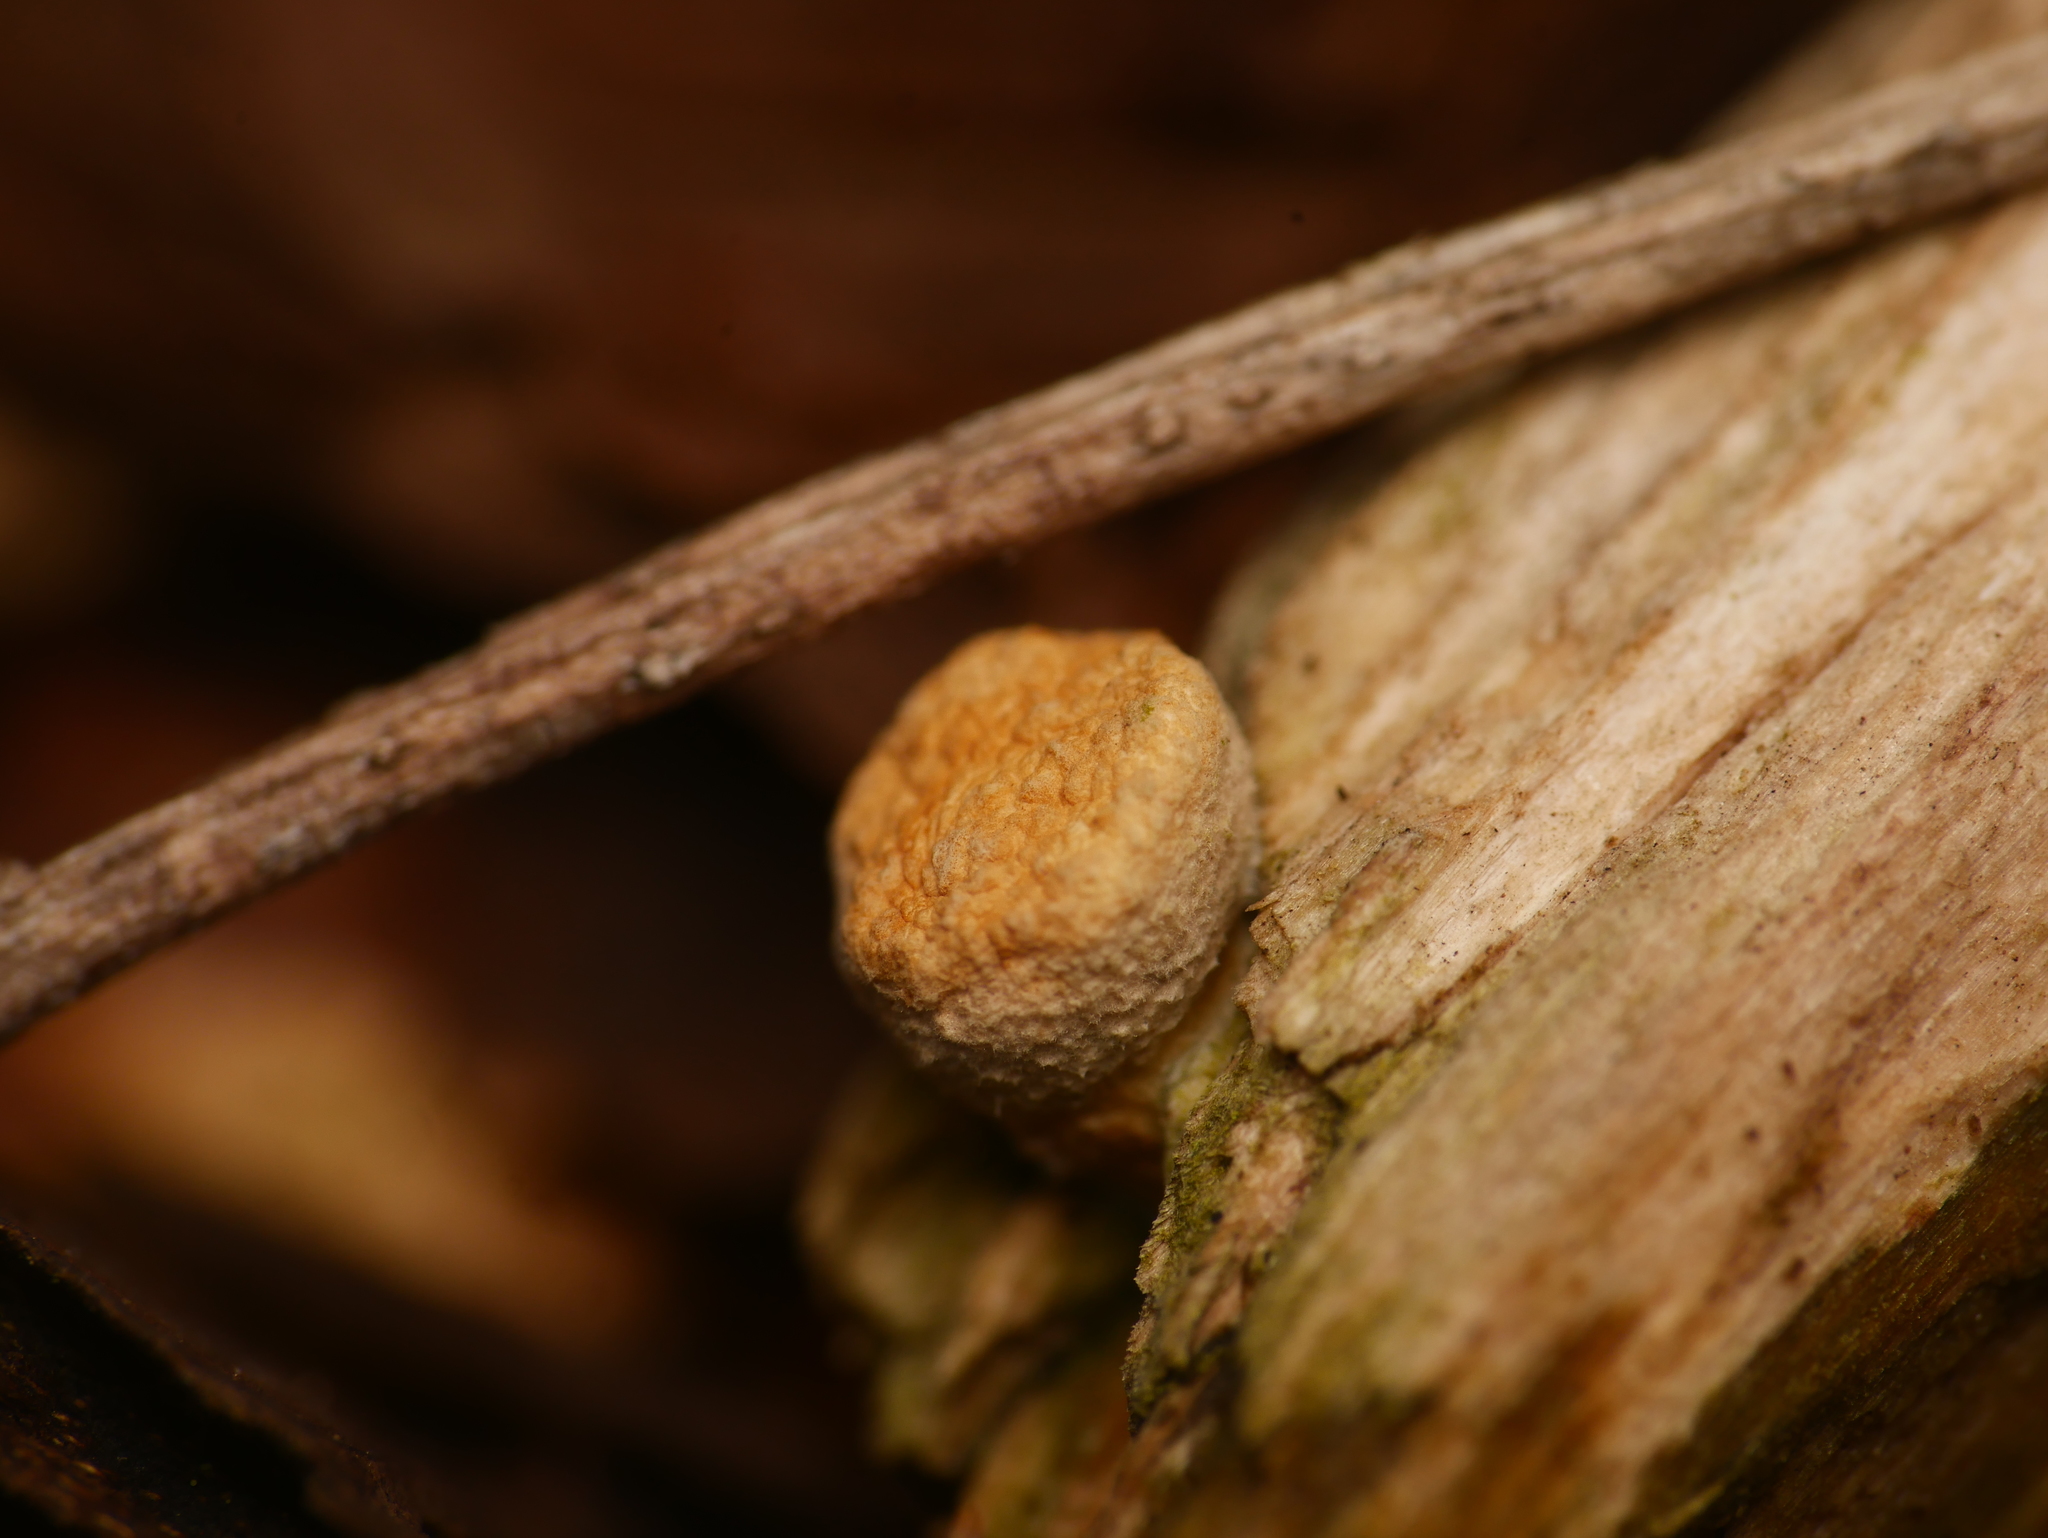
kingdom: Fungi
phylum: Basidiomycota
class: Agaricomycetes
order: Agaricales
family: Nidulariaceae
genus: Crucibulum
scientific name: Crucibulum laeve
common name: Common bird's nest
